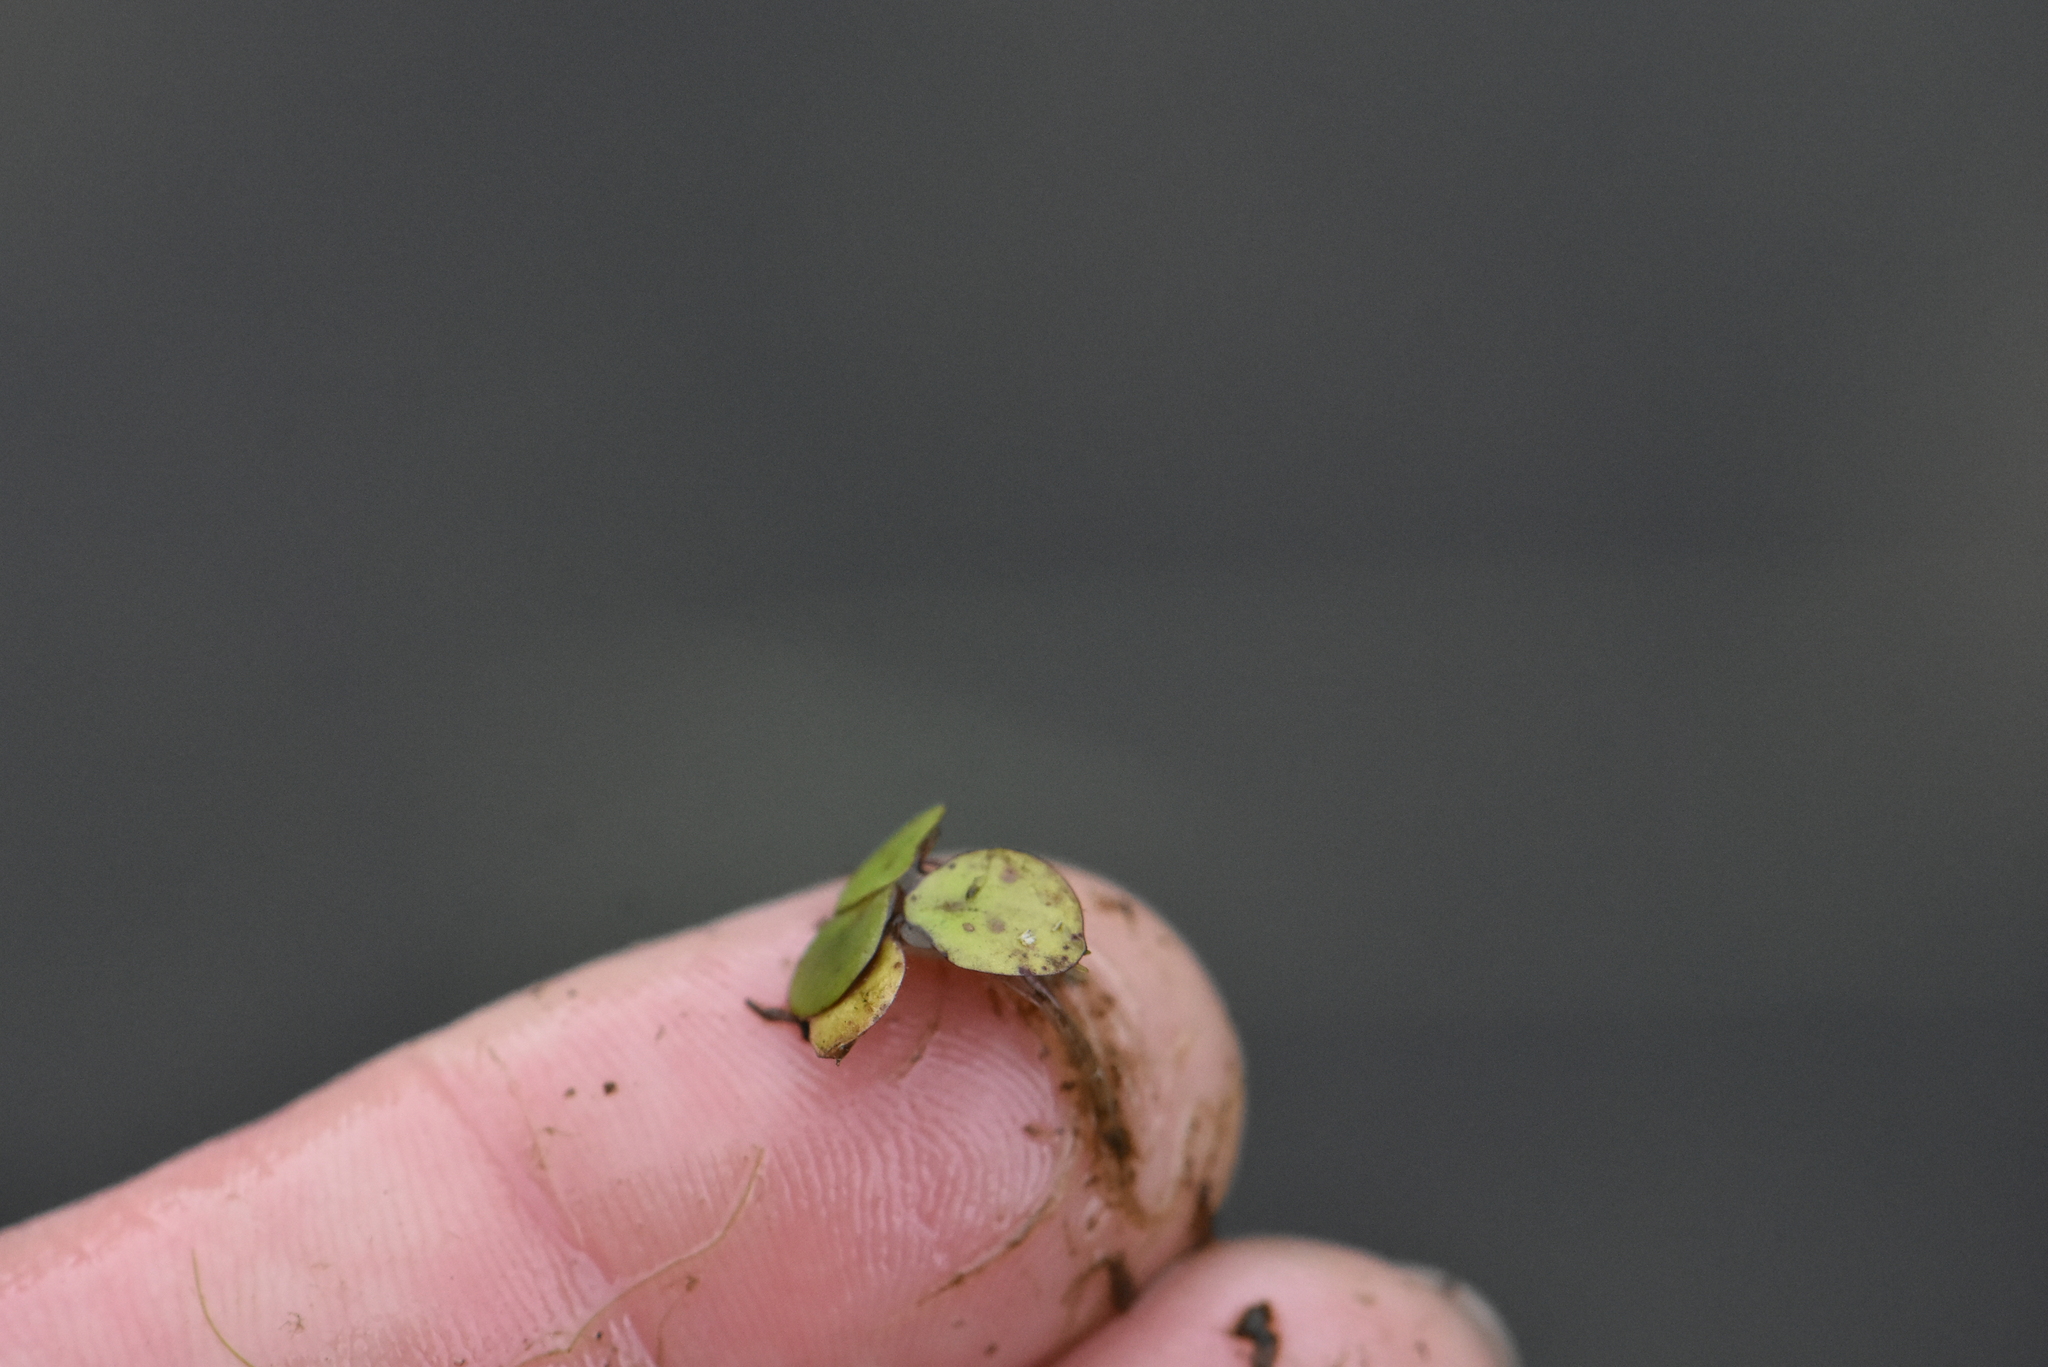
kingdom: Plantae
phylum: Tracheophyta
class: Liliopsida
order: Alismatales
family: Araceae
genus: Spirodela
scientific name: Spirodela polyrhiza
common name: Great duckweed
